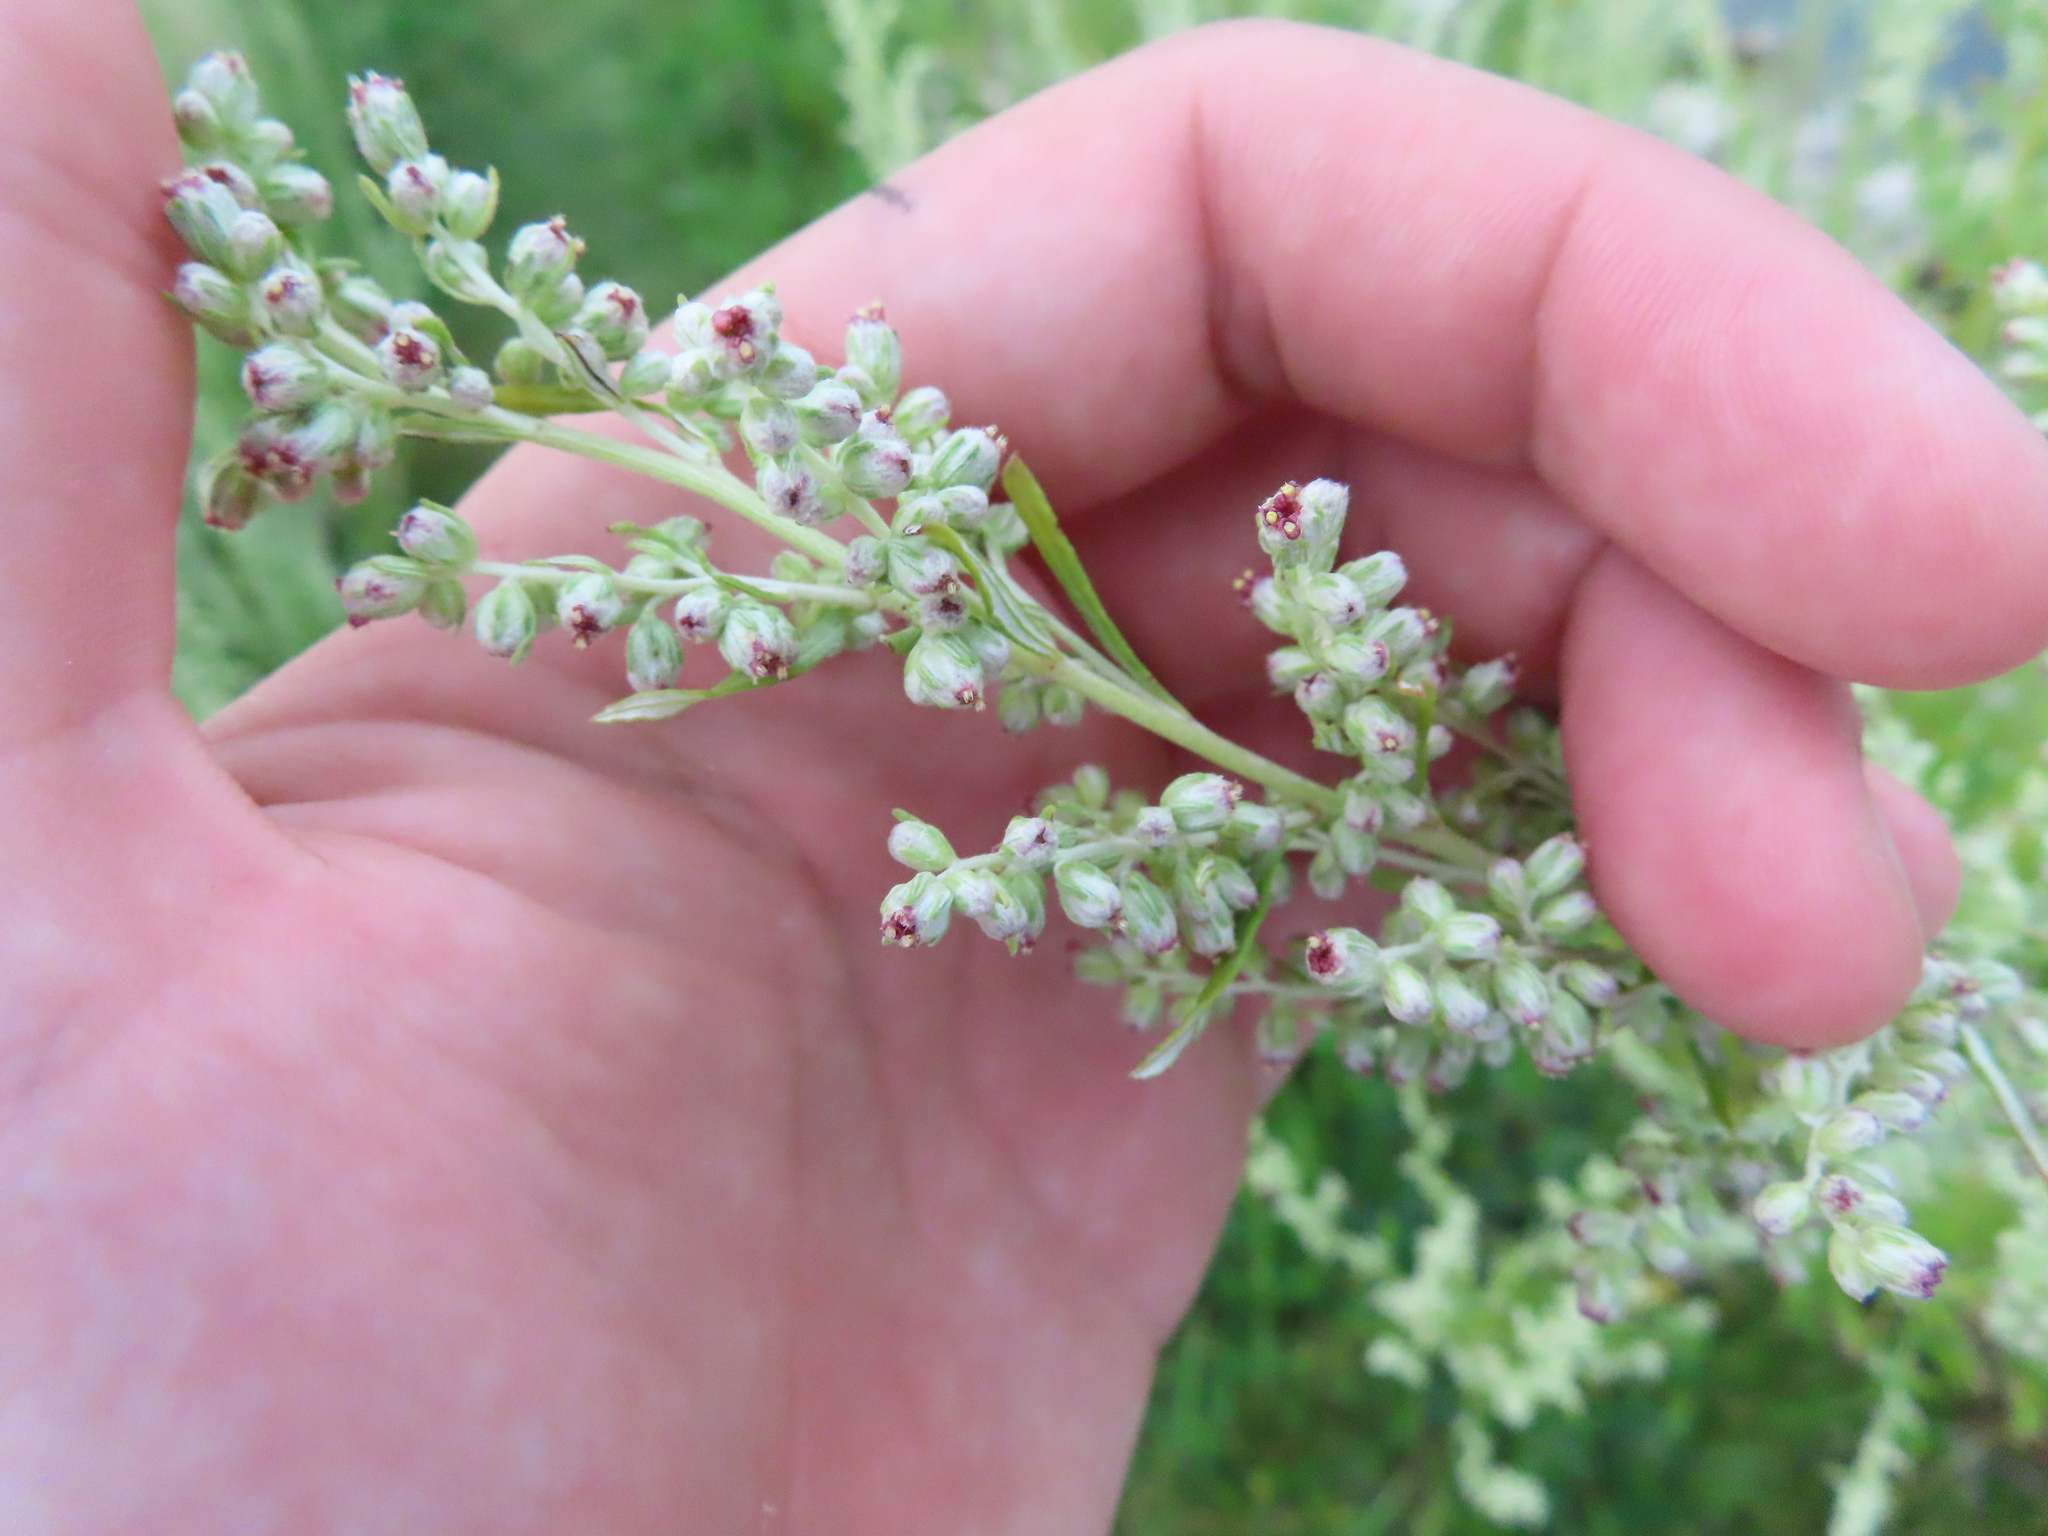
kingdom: Plantae
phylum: Tracheophyta
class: Magnoliopsida
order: Asterales
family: Asteraceae
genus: Artemisia
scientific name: Artemisia vulgaris
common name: Mugwort
